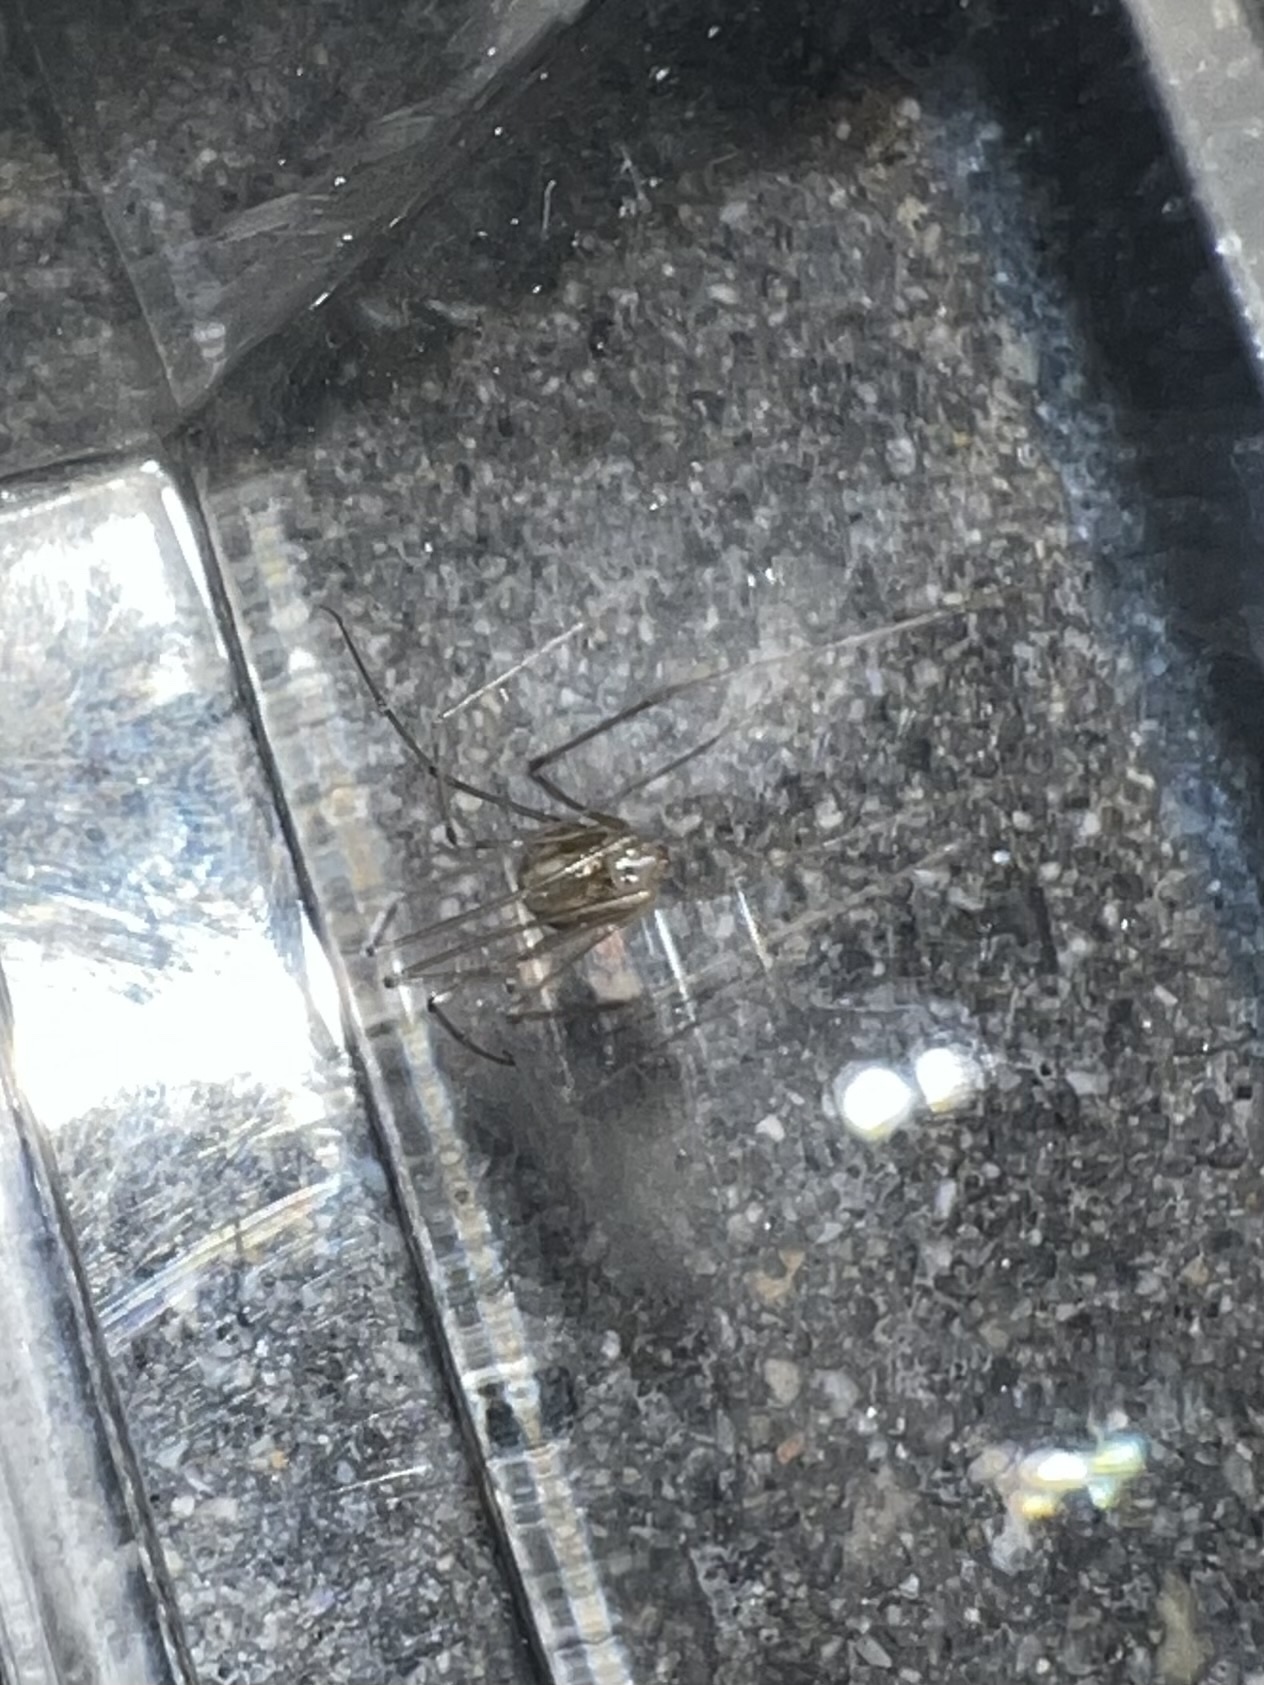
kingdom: Animalia
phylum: Arthropoda
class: Arachnida
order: Araneae
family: Pholcidae
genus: Pholcus
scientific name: Pholcus phalangioides
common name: Longbodied cellar spider
